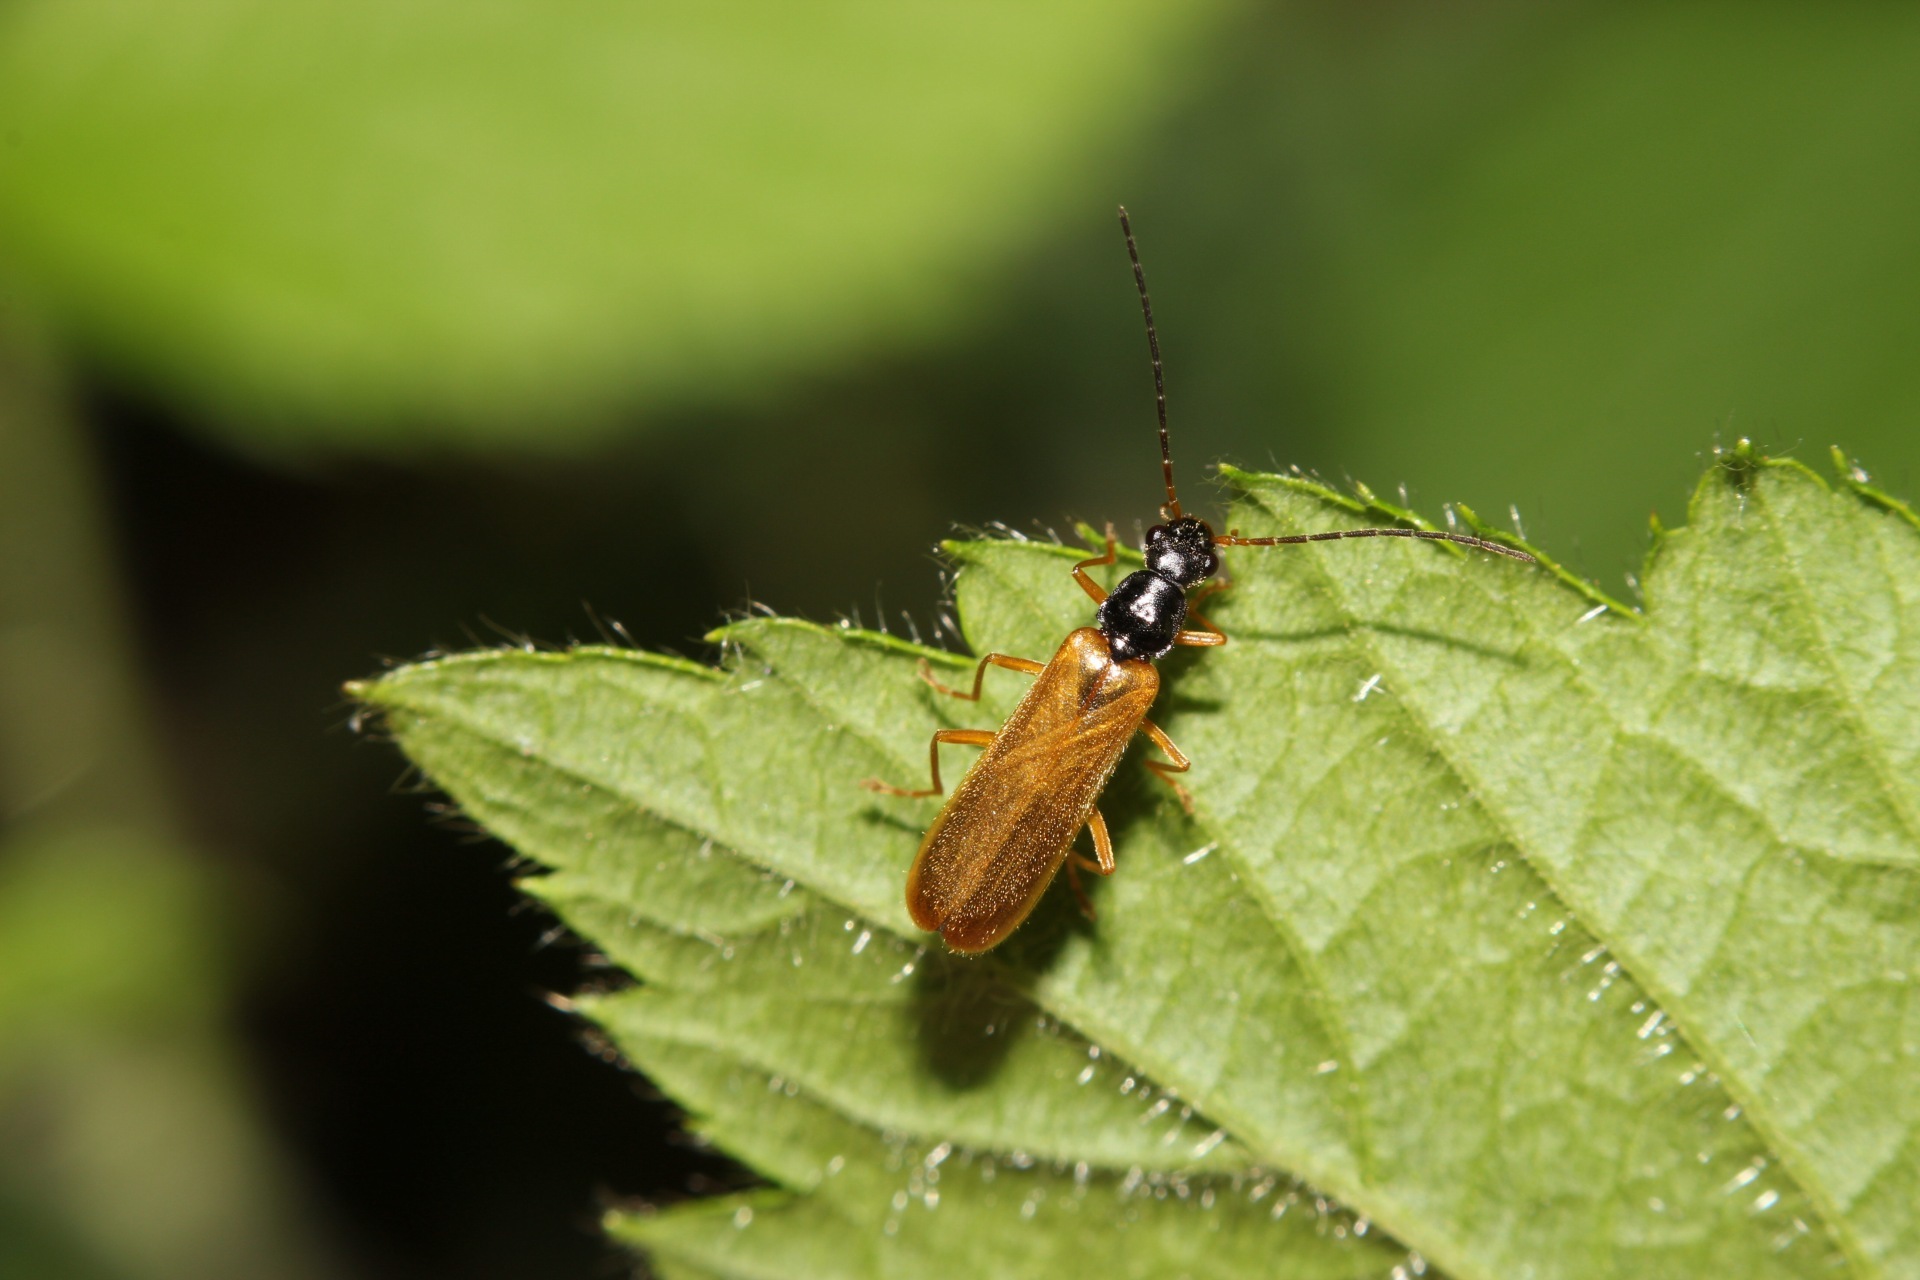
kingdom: Animalia
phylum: Arthropoda
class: Insecta
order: Coleoptera
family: Cantharidae
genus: Rhagonycha
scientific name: Rhagonycha lignosa
